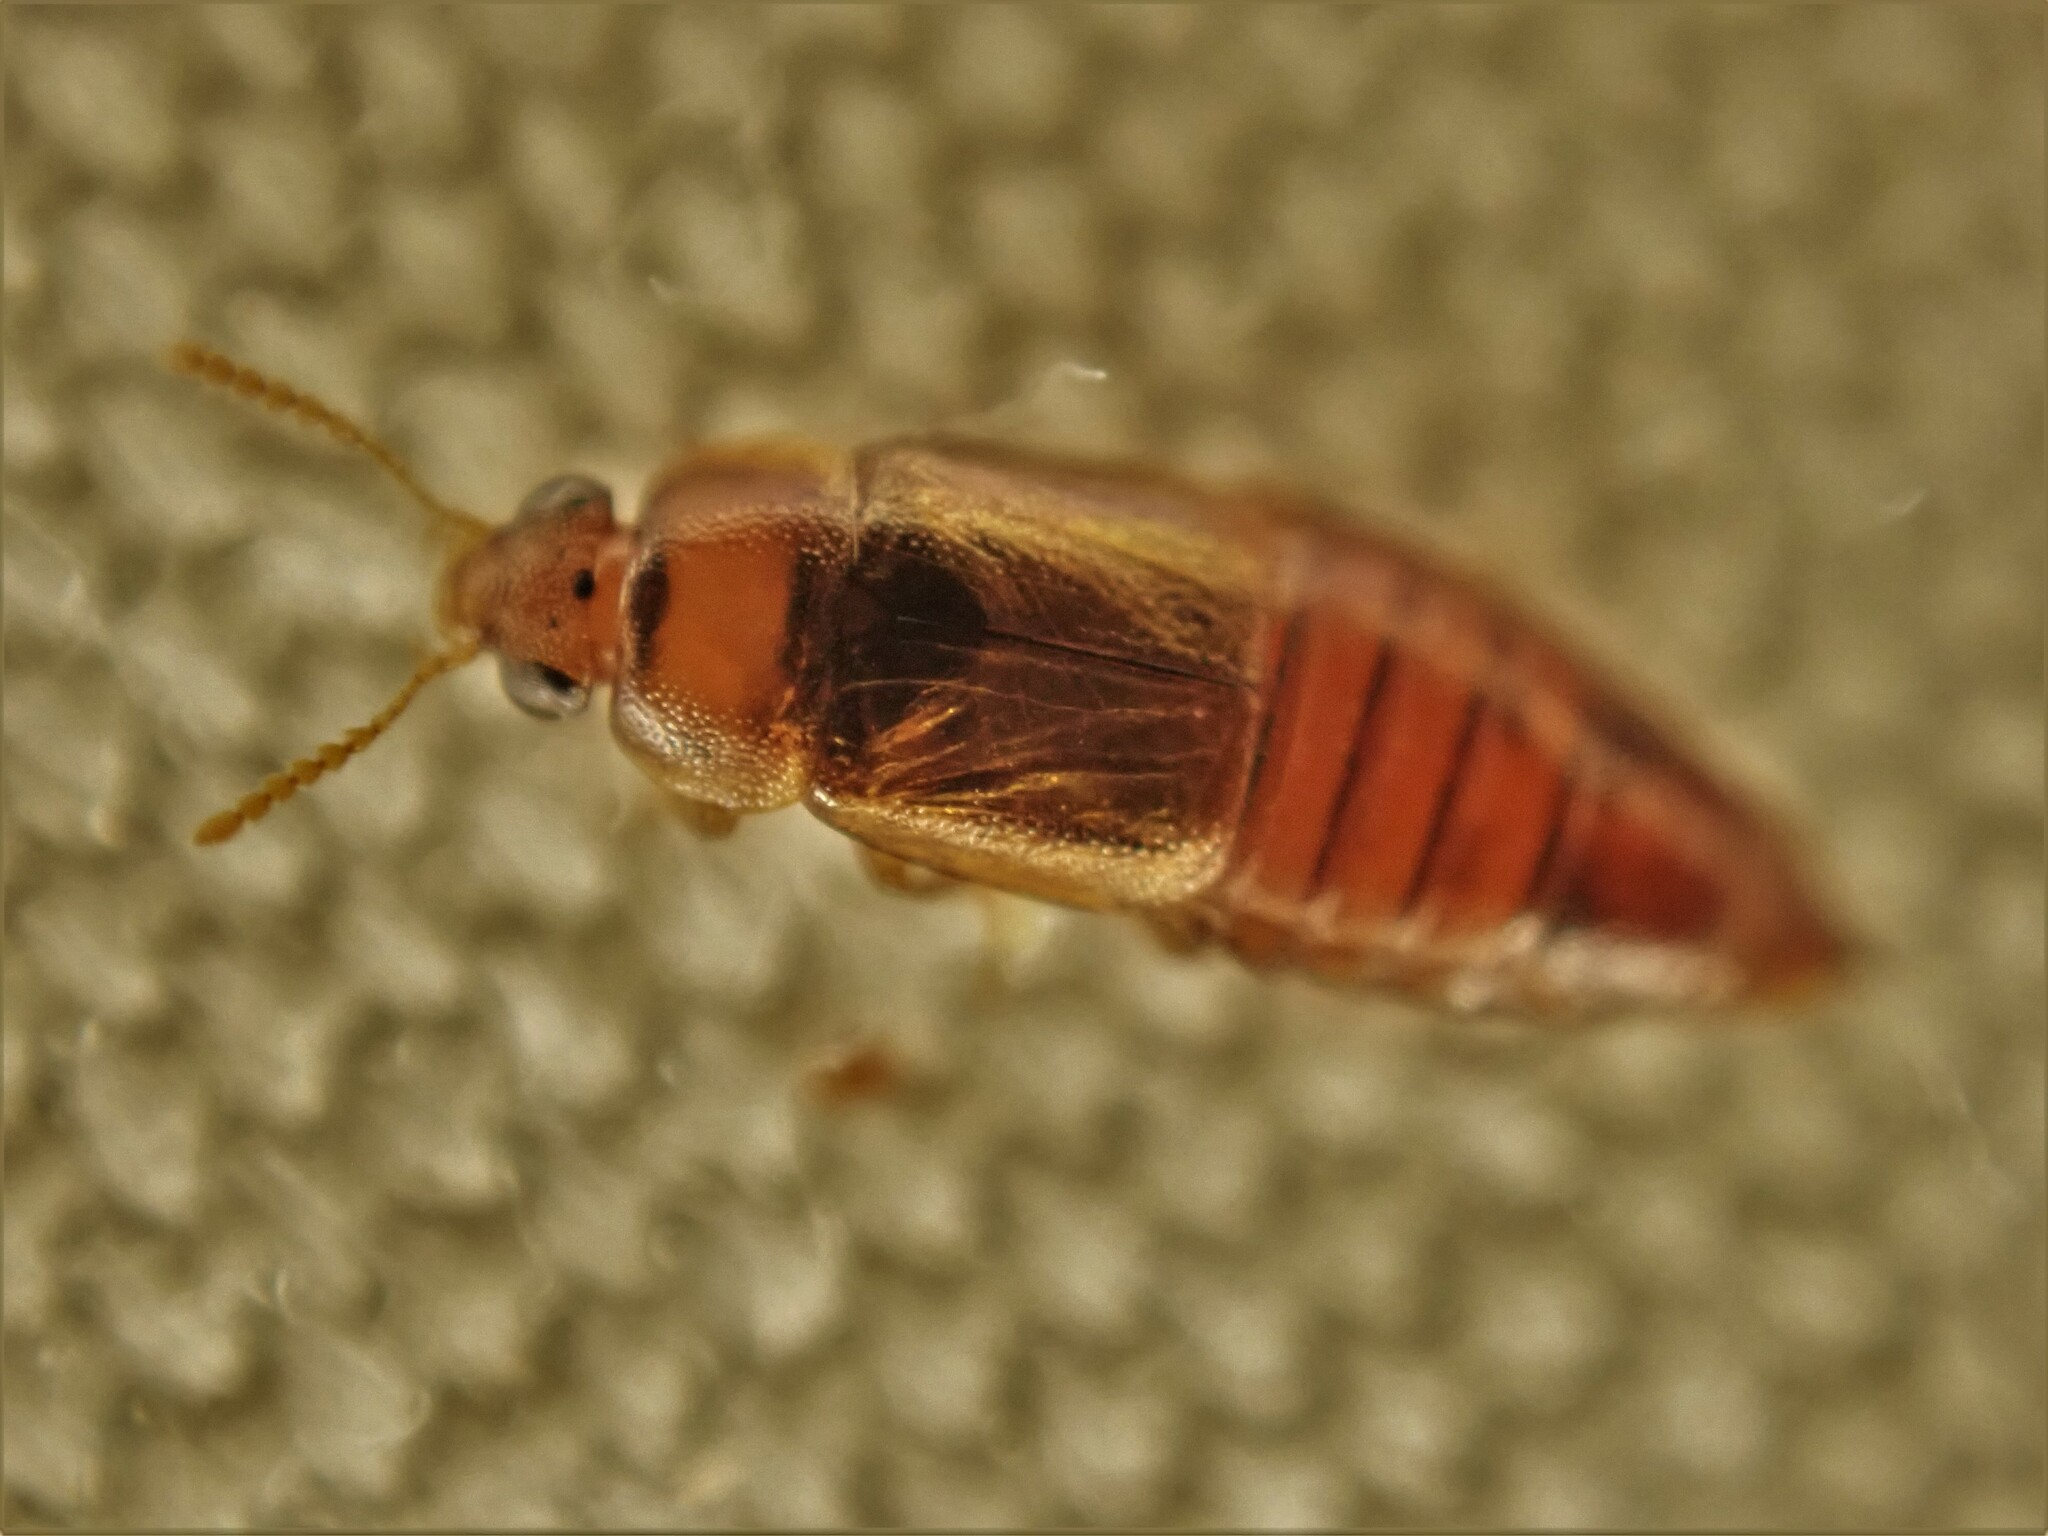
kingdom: Animalia
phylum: Arthropoda
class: Insecta
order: Coleoptera
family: Staphylinidae
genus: Austrolophrum
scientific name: Austrolophrum cribriceps
